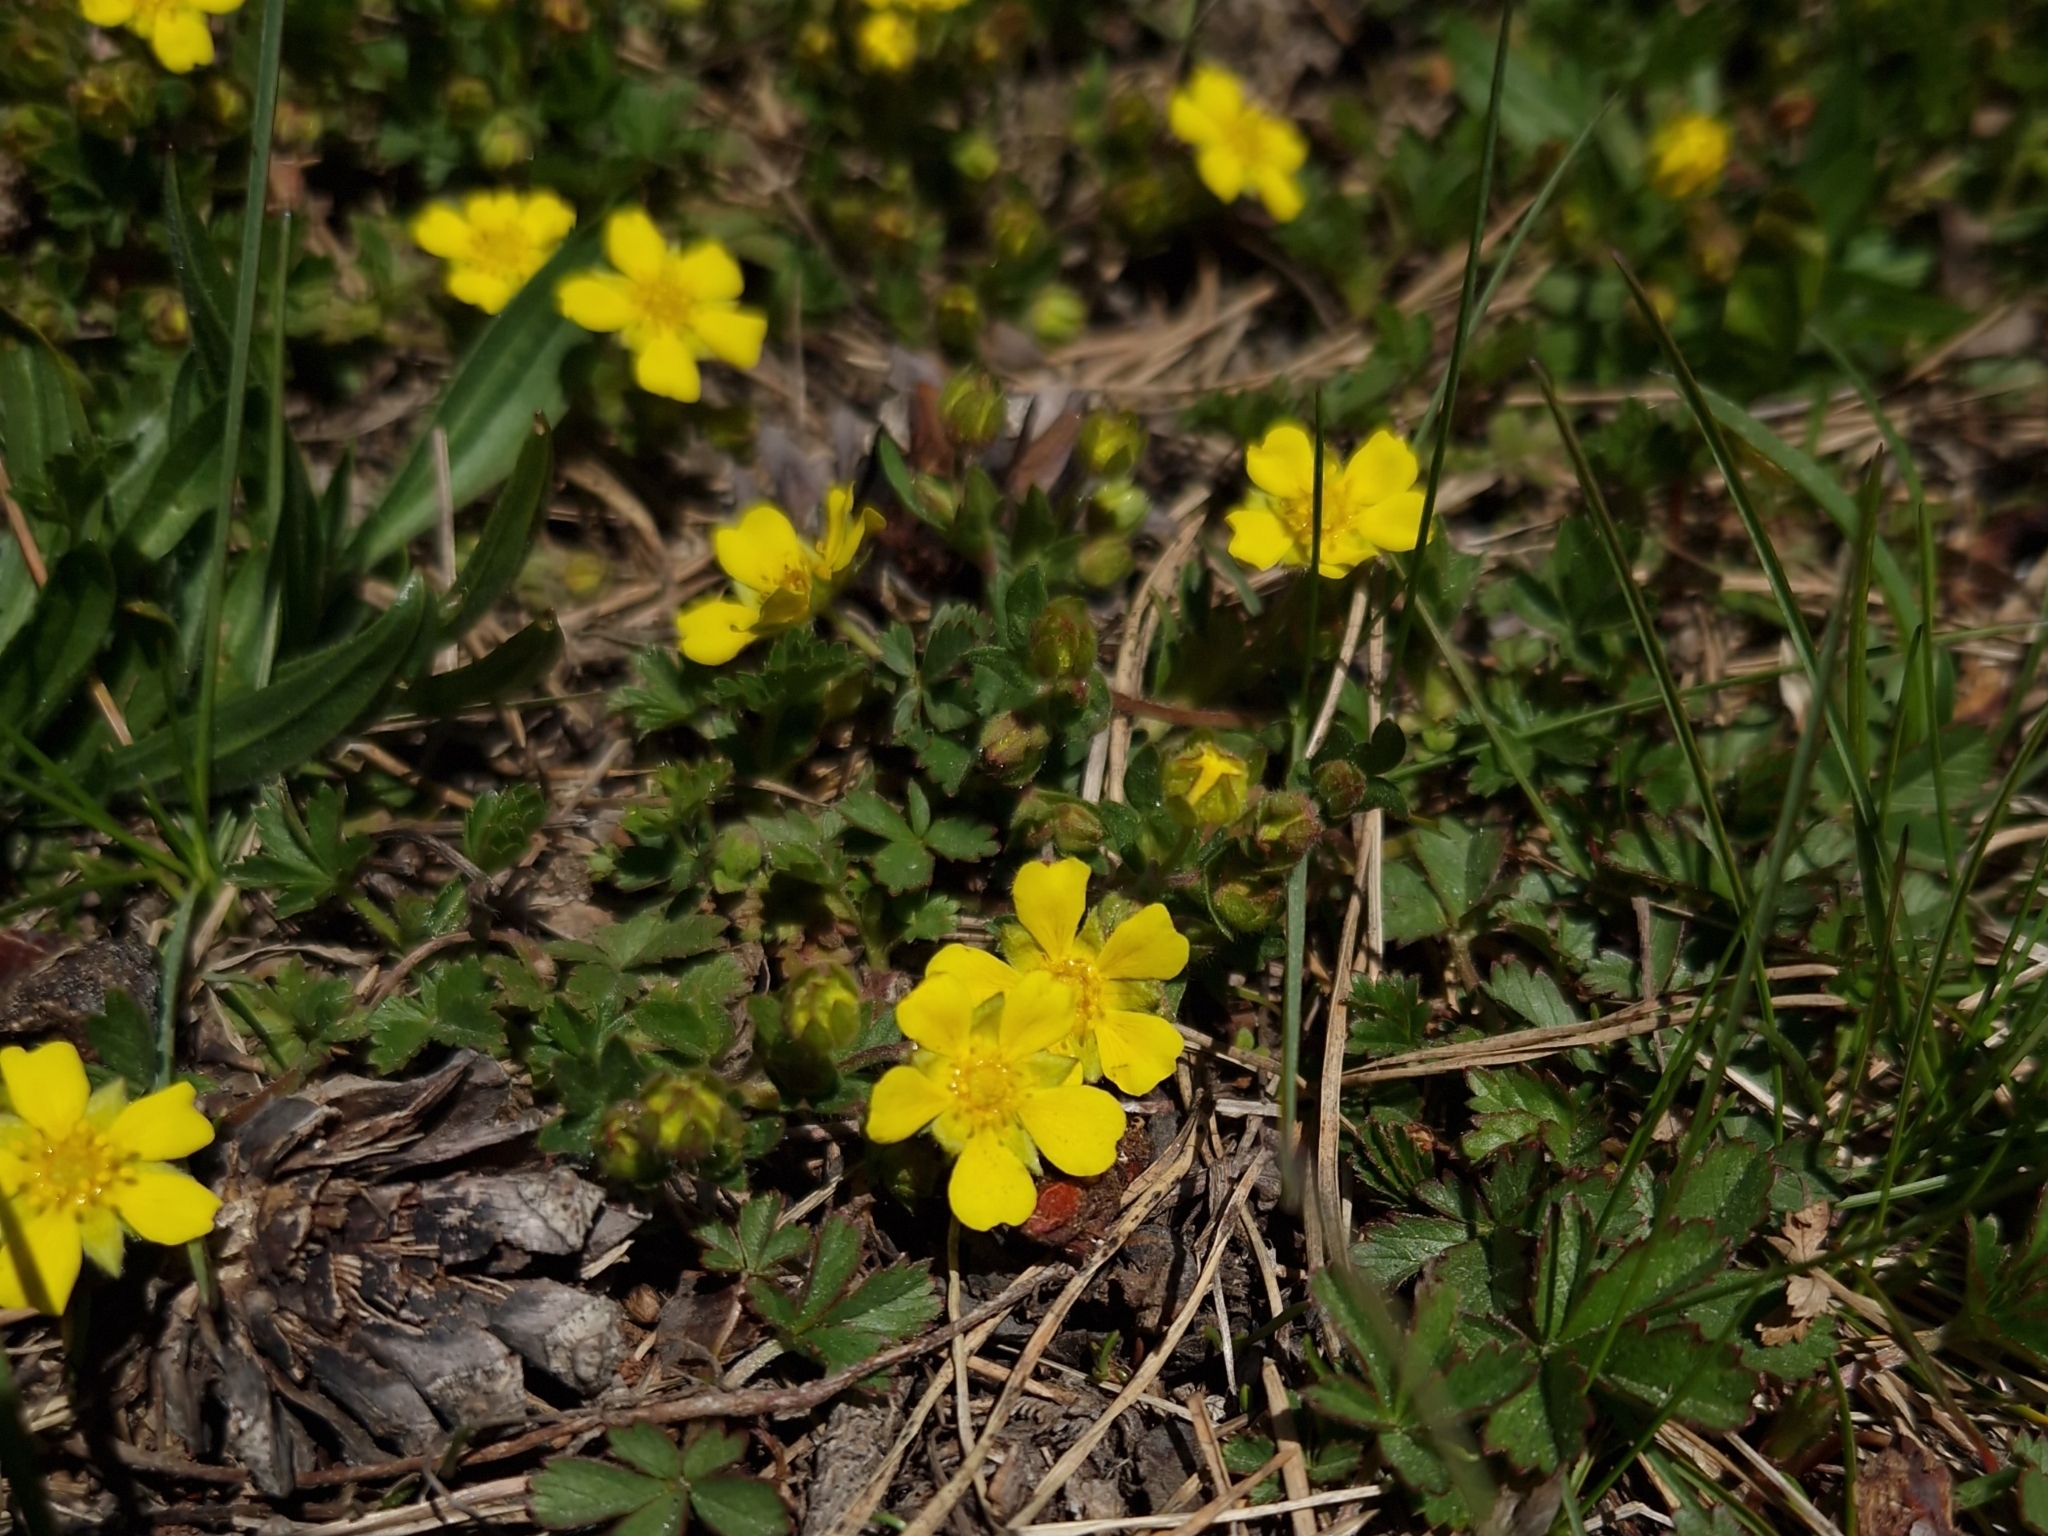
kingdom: Plantae
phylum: Tracheophyta
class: Magnoliopsida
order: Rosales
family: Rosaceae
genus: Potentilla
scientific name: Potentilla verna
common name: Spring cinquefoil
